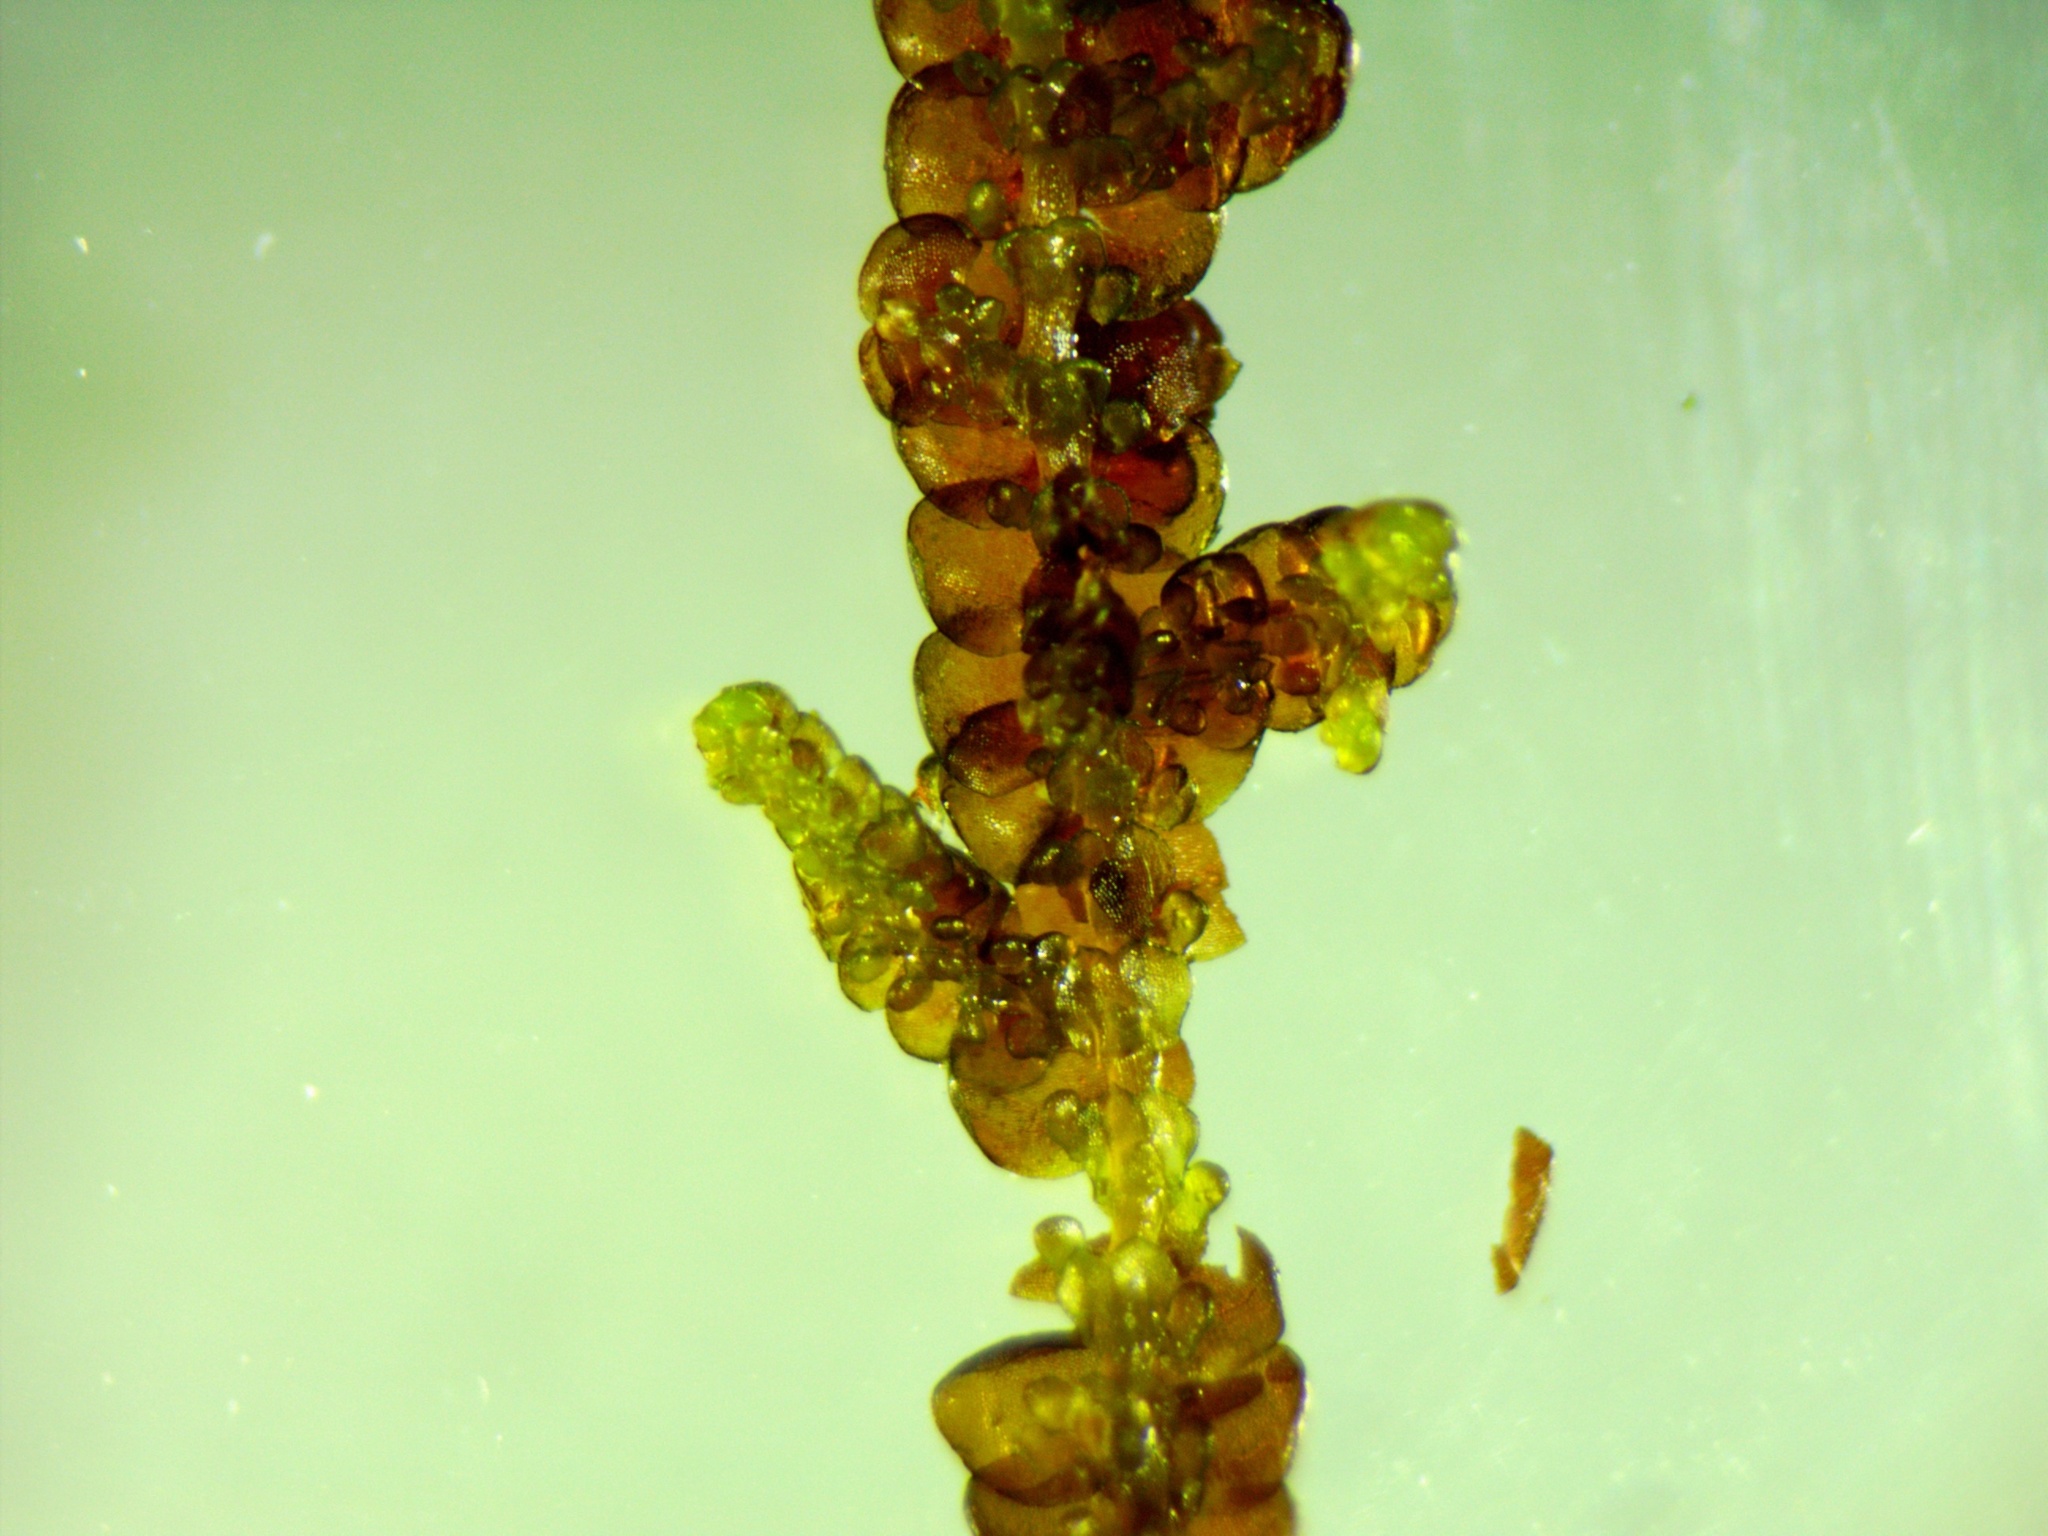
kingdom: Plantae
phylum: Marchantiophyta
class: Jungermanniopsida
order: Porellales
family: Frullaniaceae
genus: Frullania
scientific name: Frullania tamarisci
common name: Tamarisk scalewort
